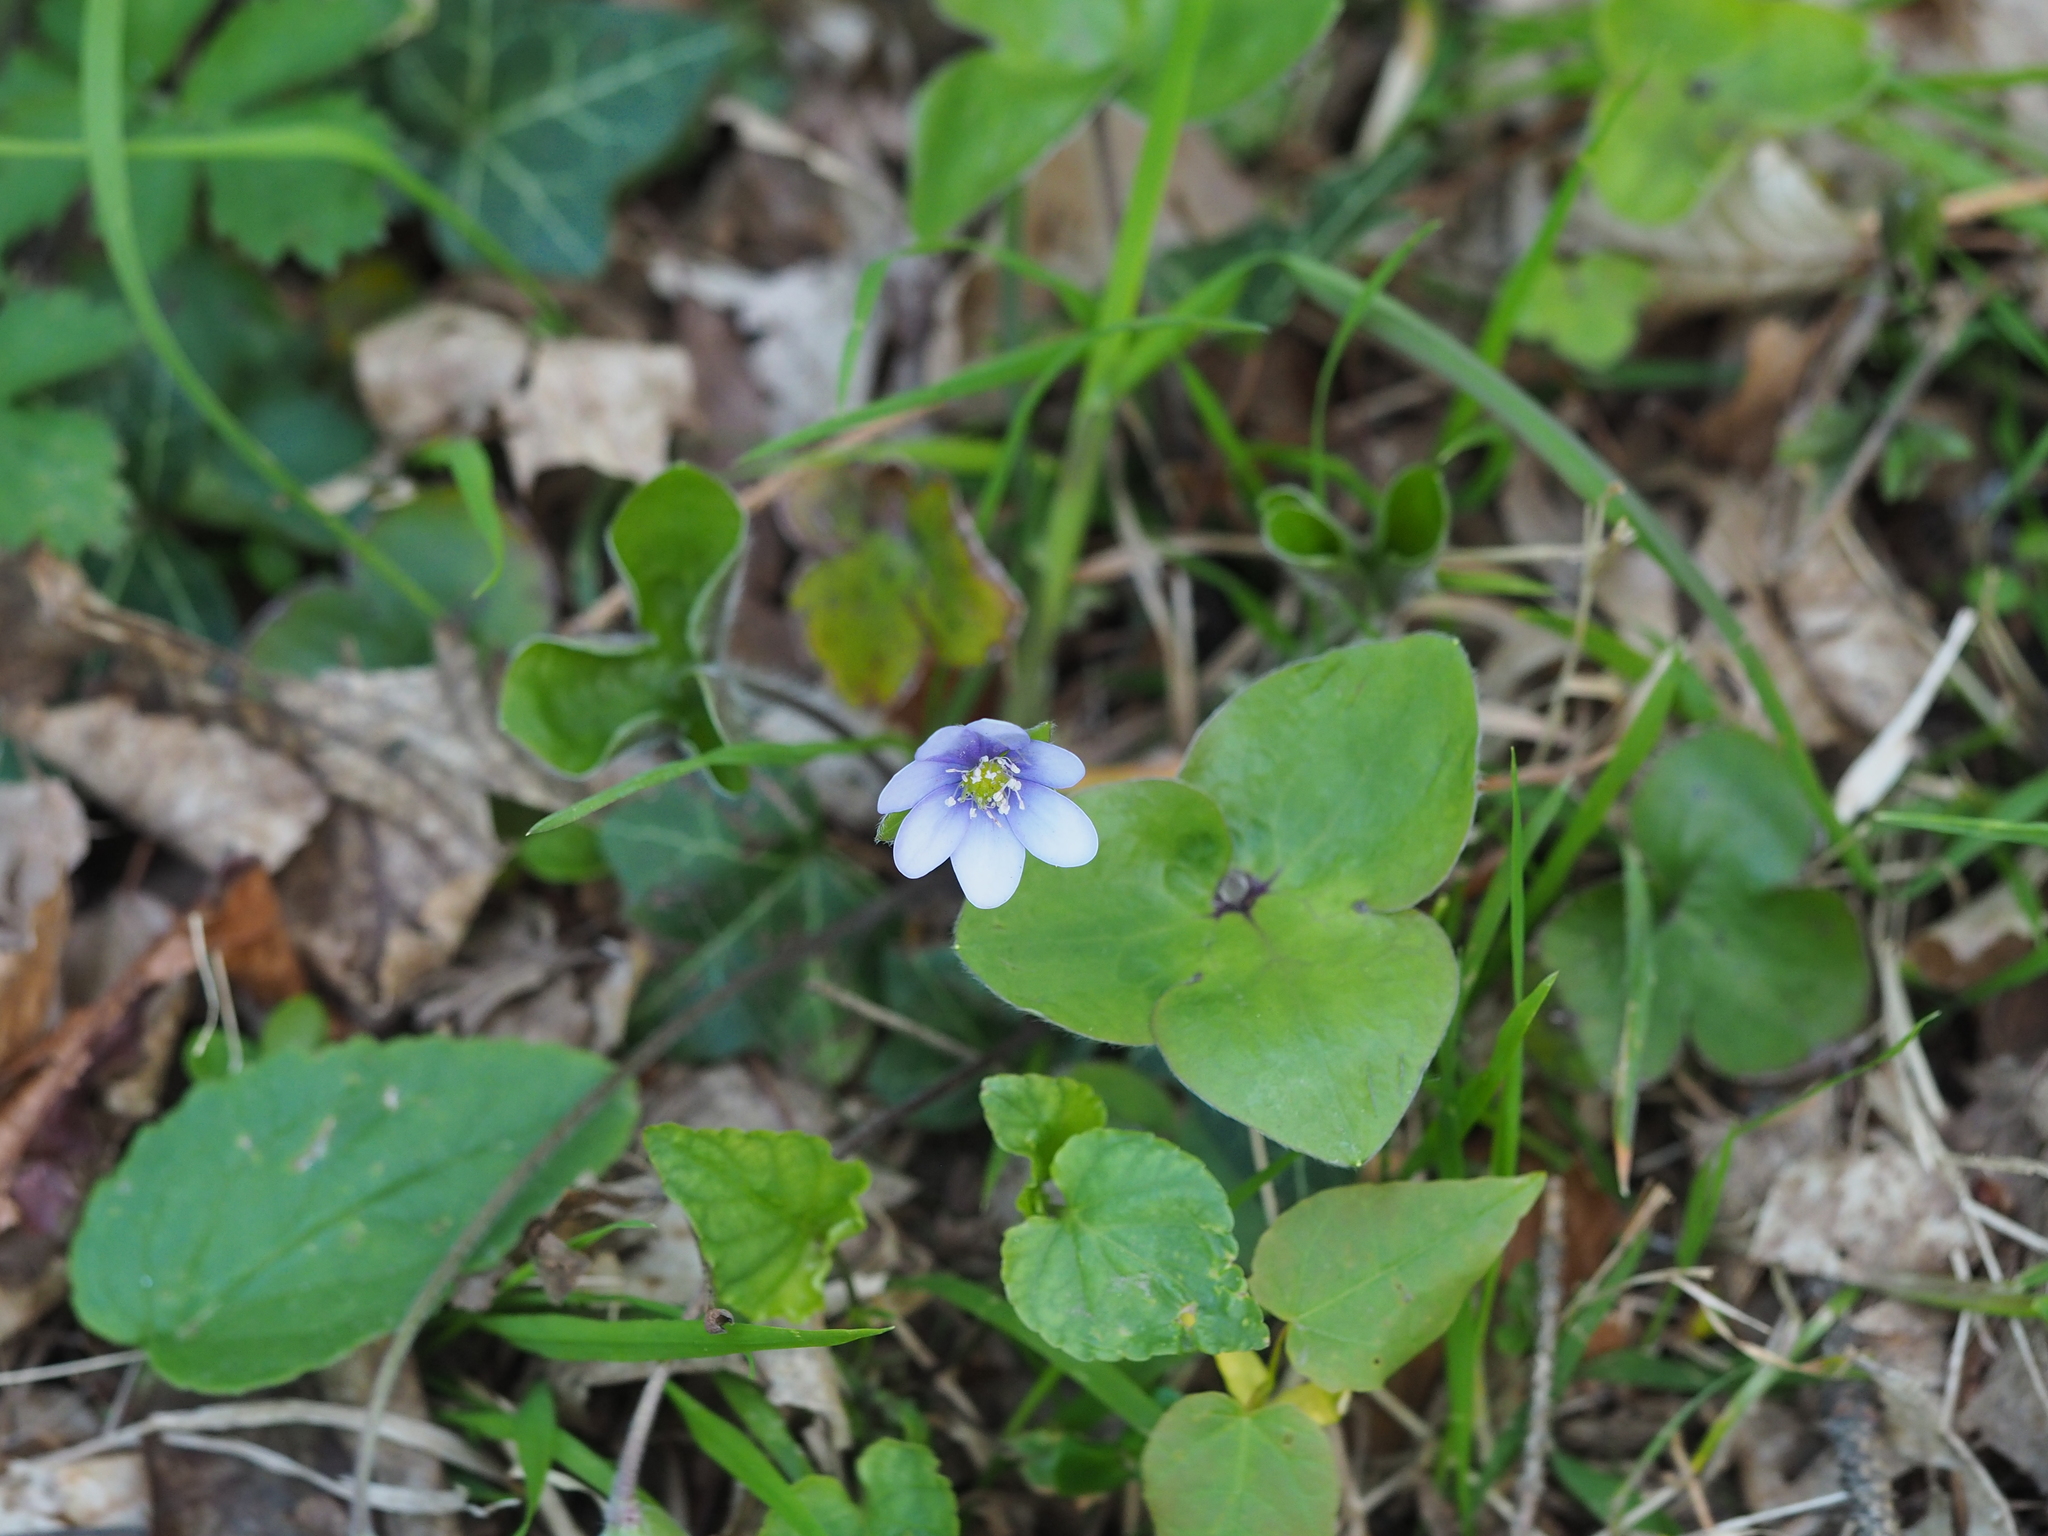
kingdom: Plantae
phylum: Tracheophyta
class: Magnoliopsida
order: Ranunculales
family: Ranunculaceae
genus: Hepatica
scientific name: Hepatica nobilis
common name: Liverleaf
